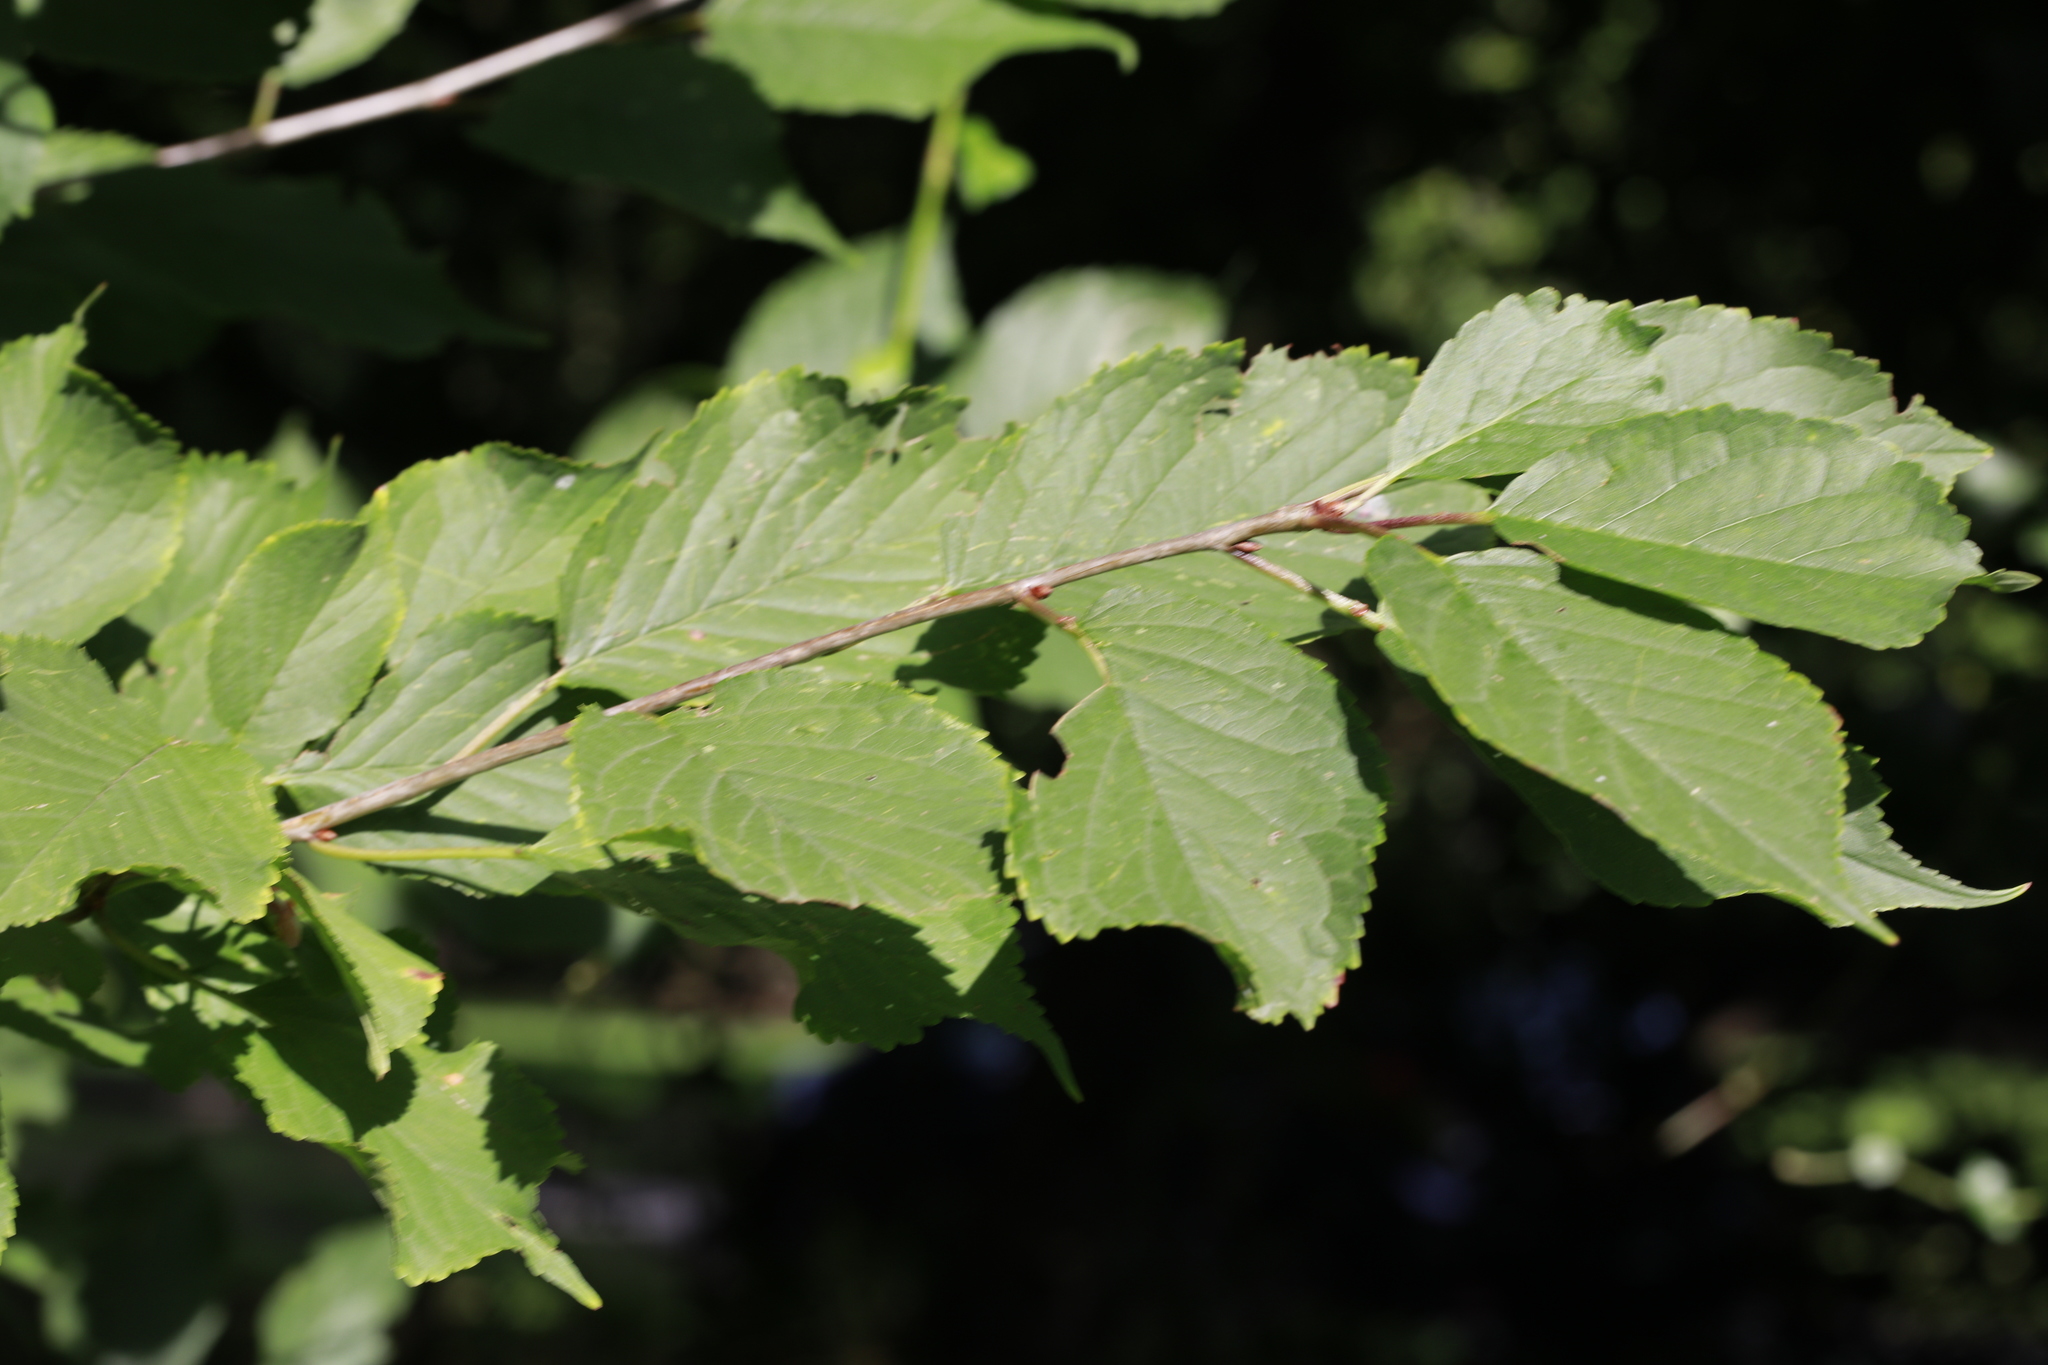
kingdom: Plantae
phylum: Tracheophyta
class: Magnoliopsida
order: Rosales
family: Rosaceae
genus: Prunus
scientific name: Prunus avium
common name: Sweet cherry
